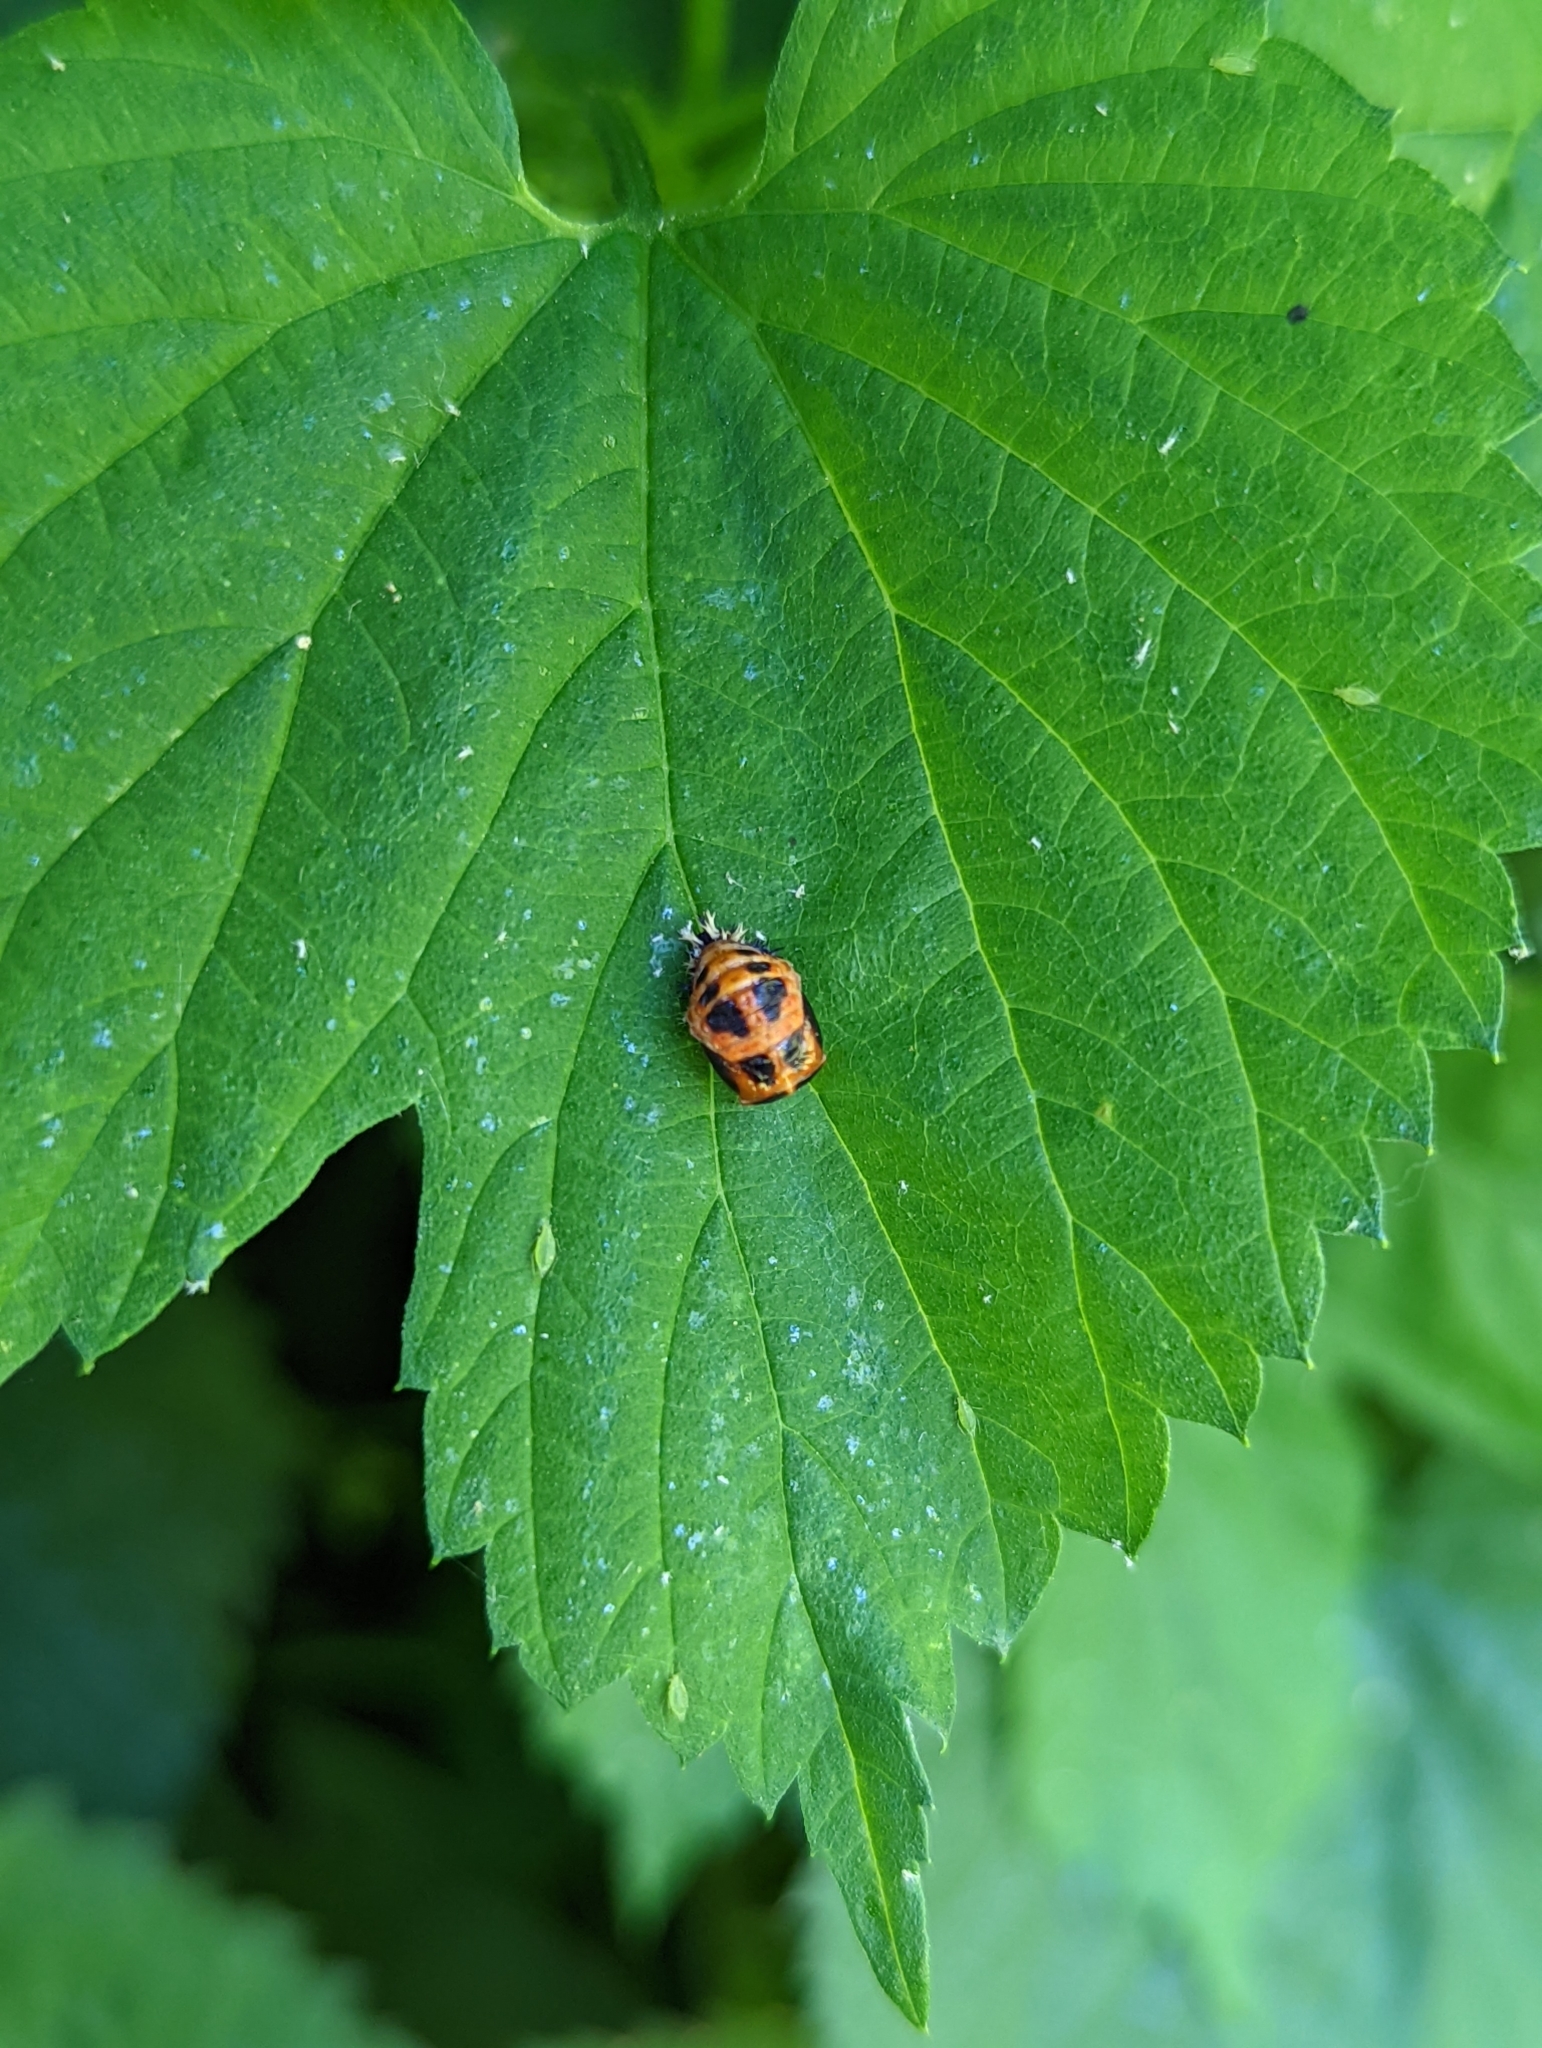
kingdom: Animalia
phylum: Arthropoda
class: Insecta
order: Coleoptera
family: Coccinellidae
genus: Harmonia
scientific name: Harmonia axyridis
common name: Harlequin ladybird
